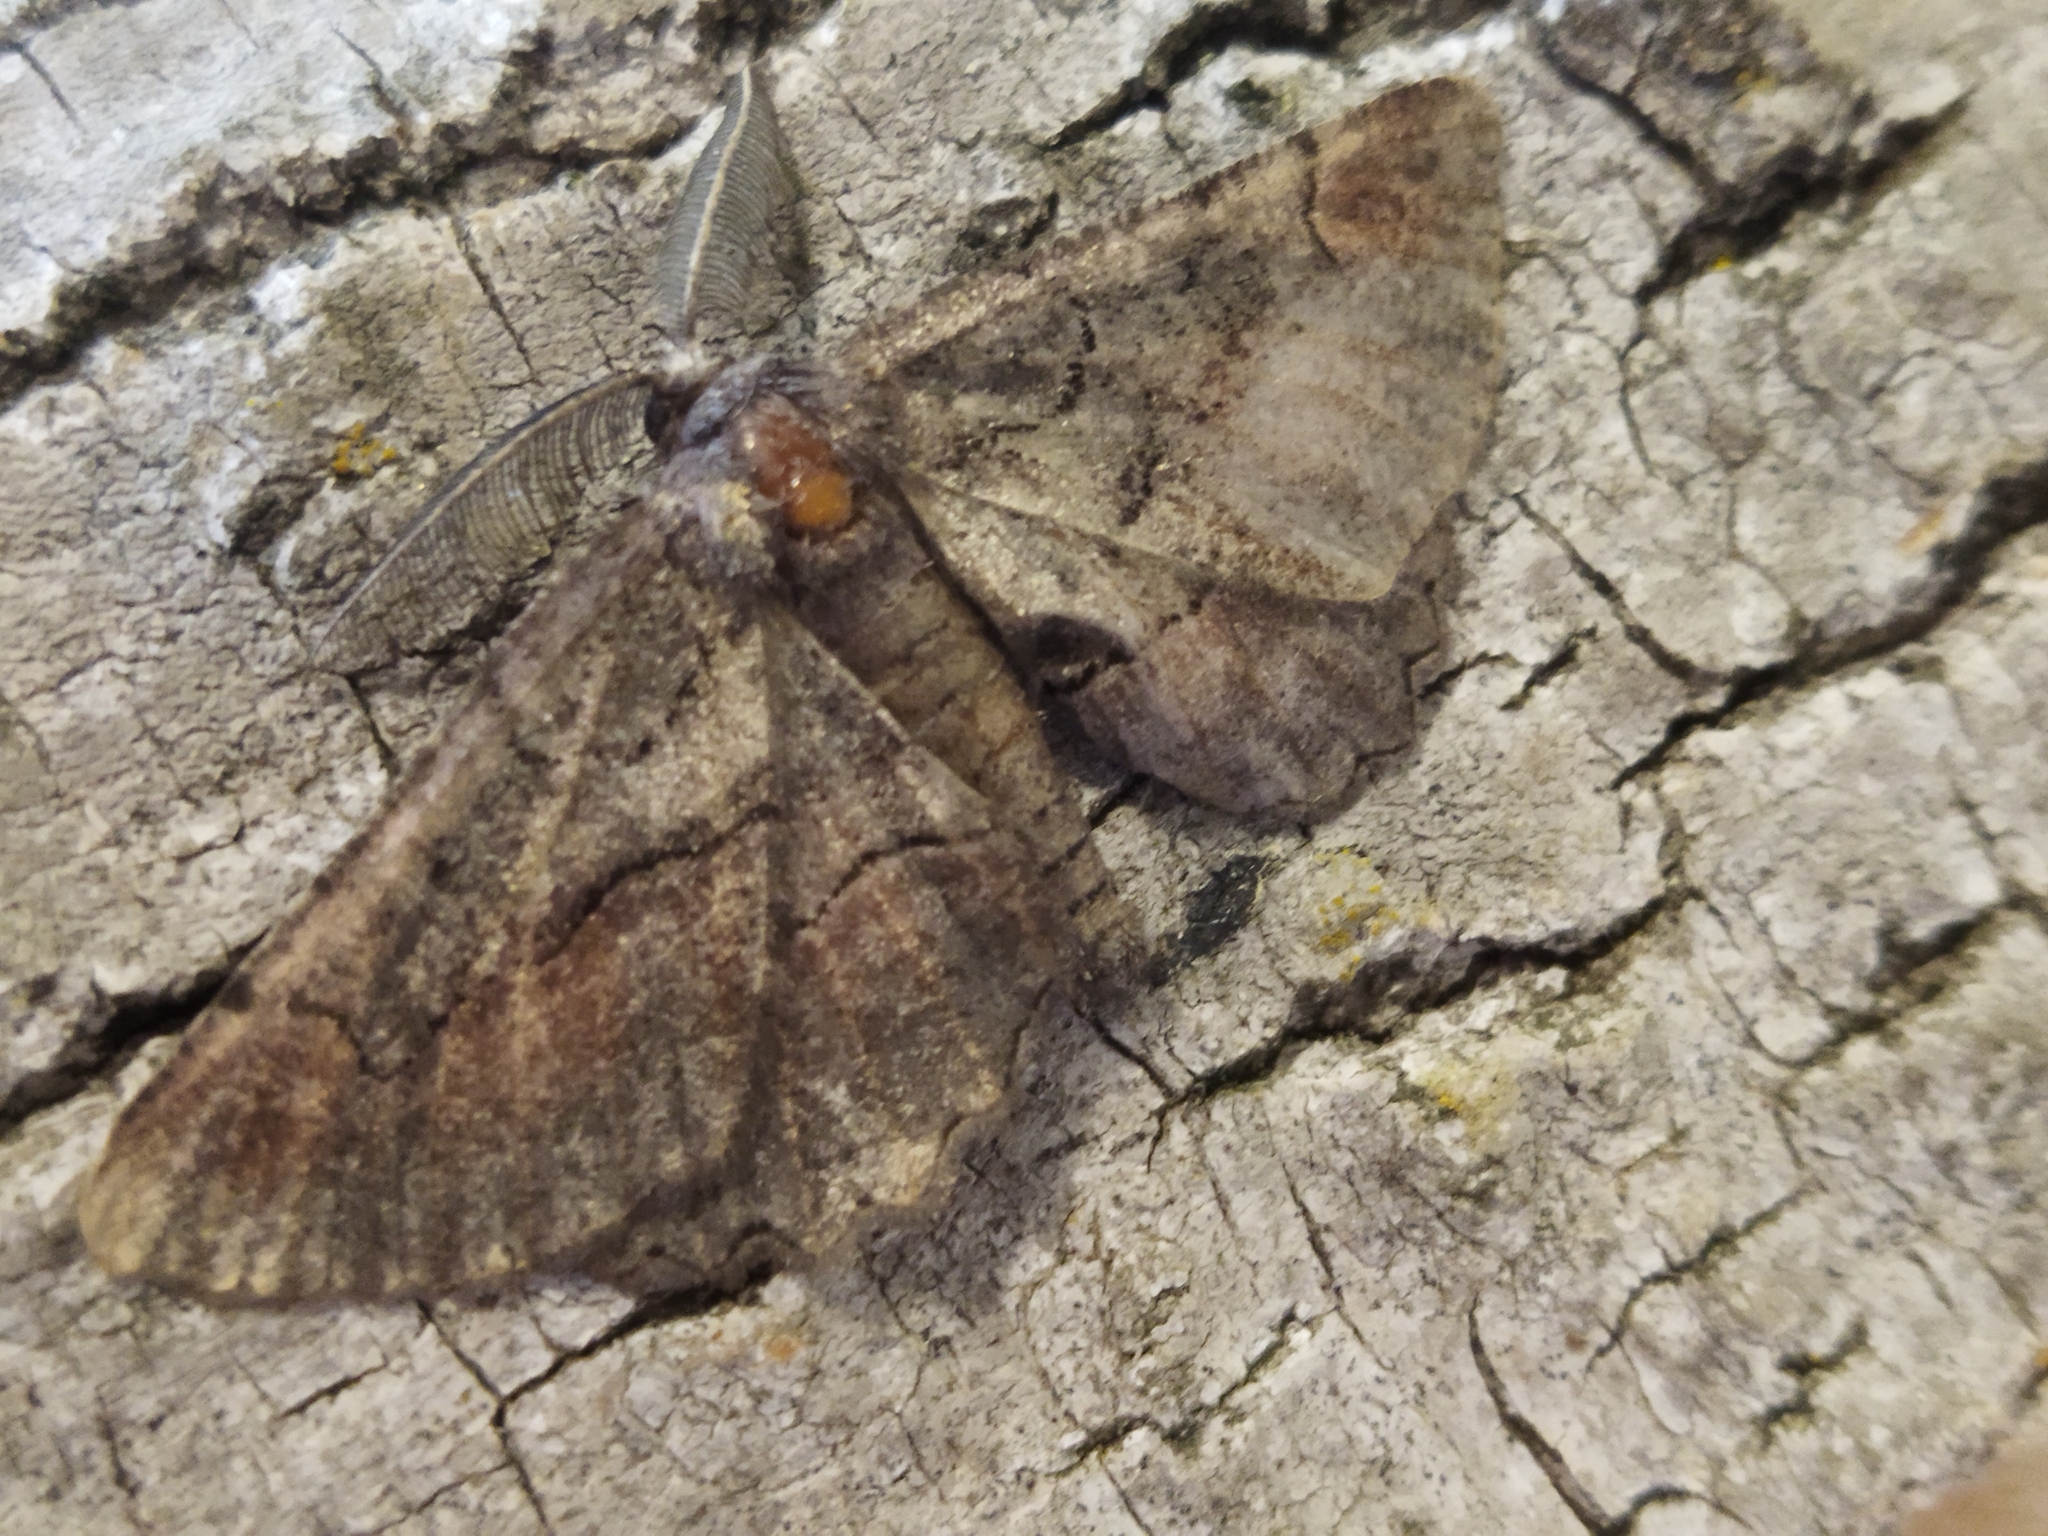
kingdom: Animalia
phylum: Arthropoda
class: Insecta
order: Lepidoptera
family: Geometridae
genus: Nychiodes
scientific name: Nychiodes waltheri
